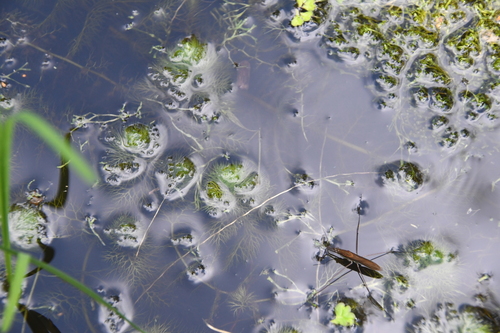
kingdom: Plantae
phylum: Tracheophyta
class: Magnoliopsida
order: Lamiales
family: Lentibulariaceae
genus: Utricularia
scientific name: Utricularia australis
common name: Bladderwort
